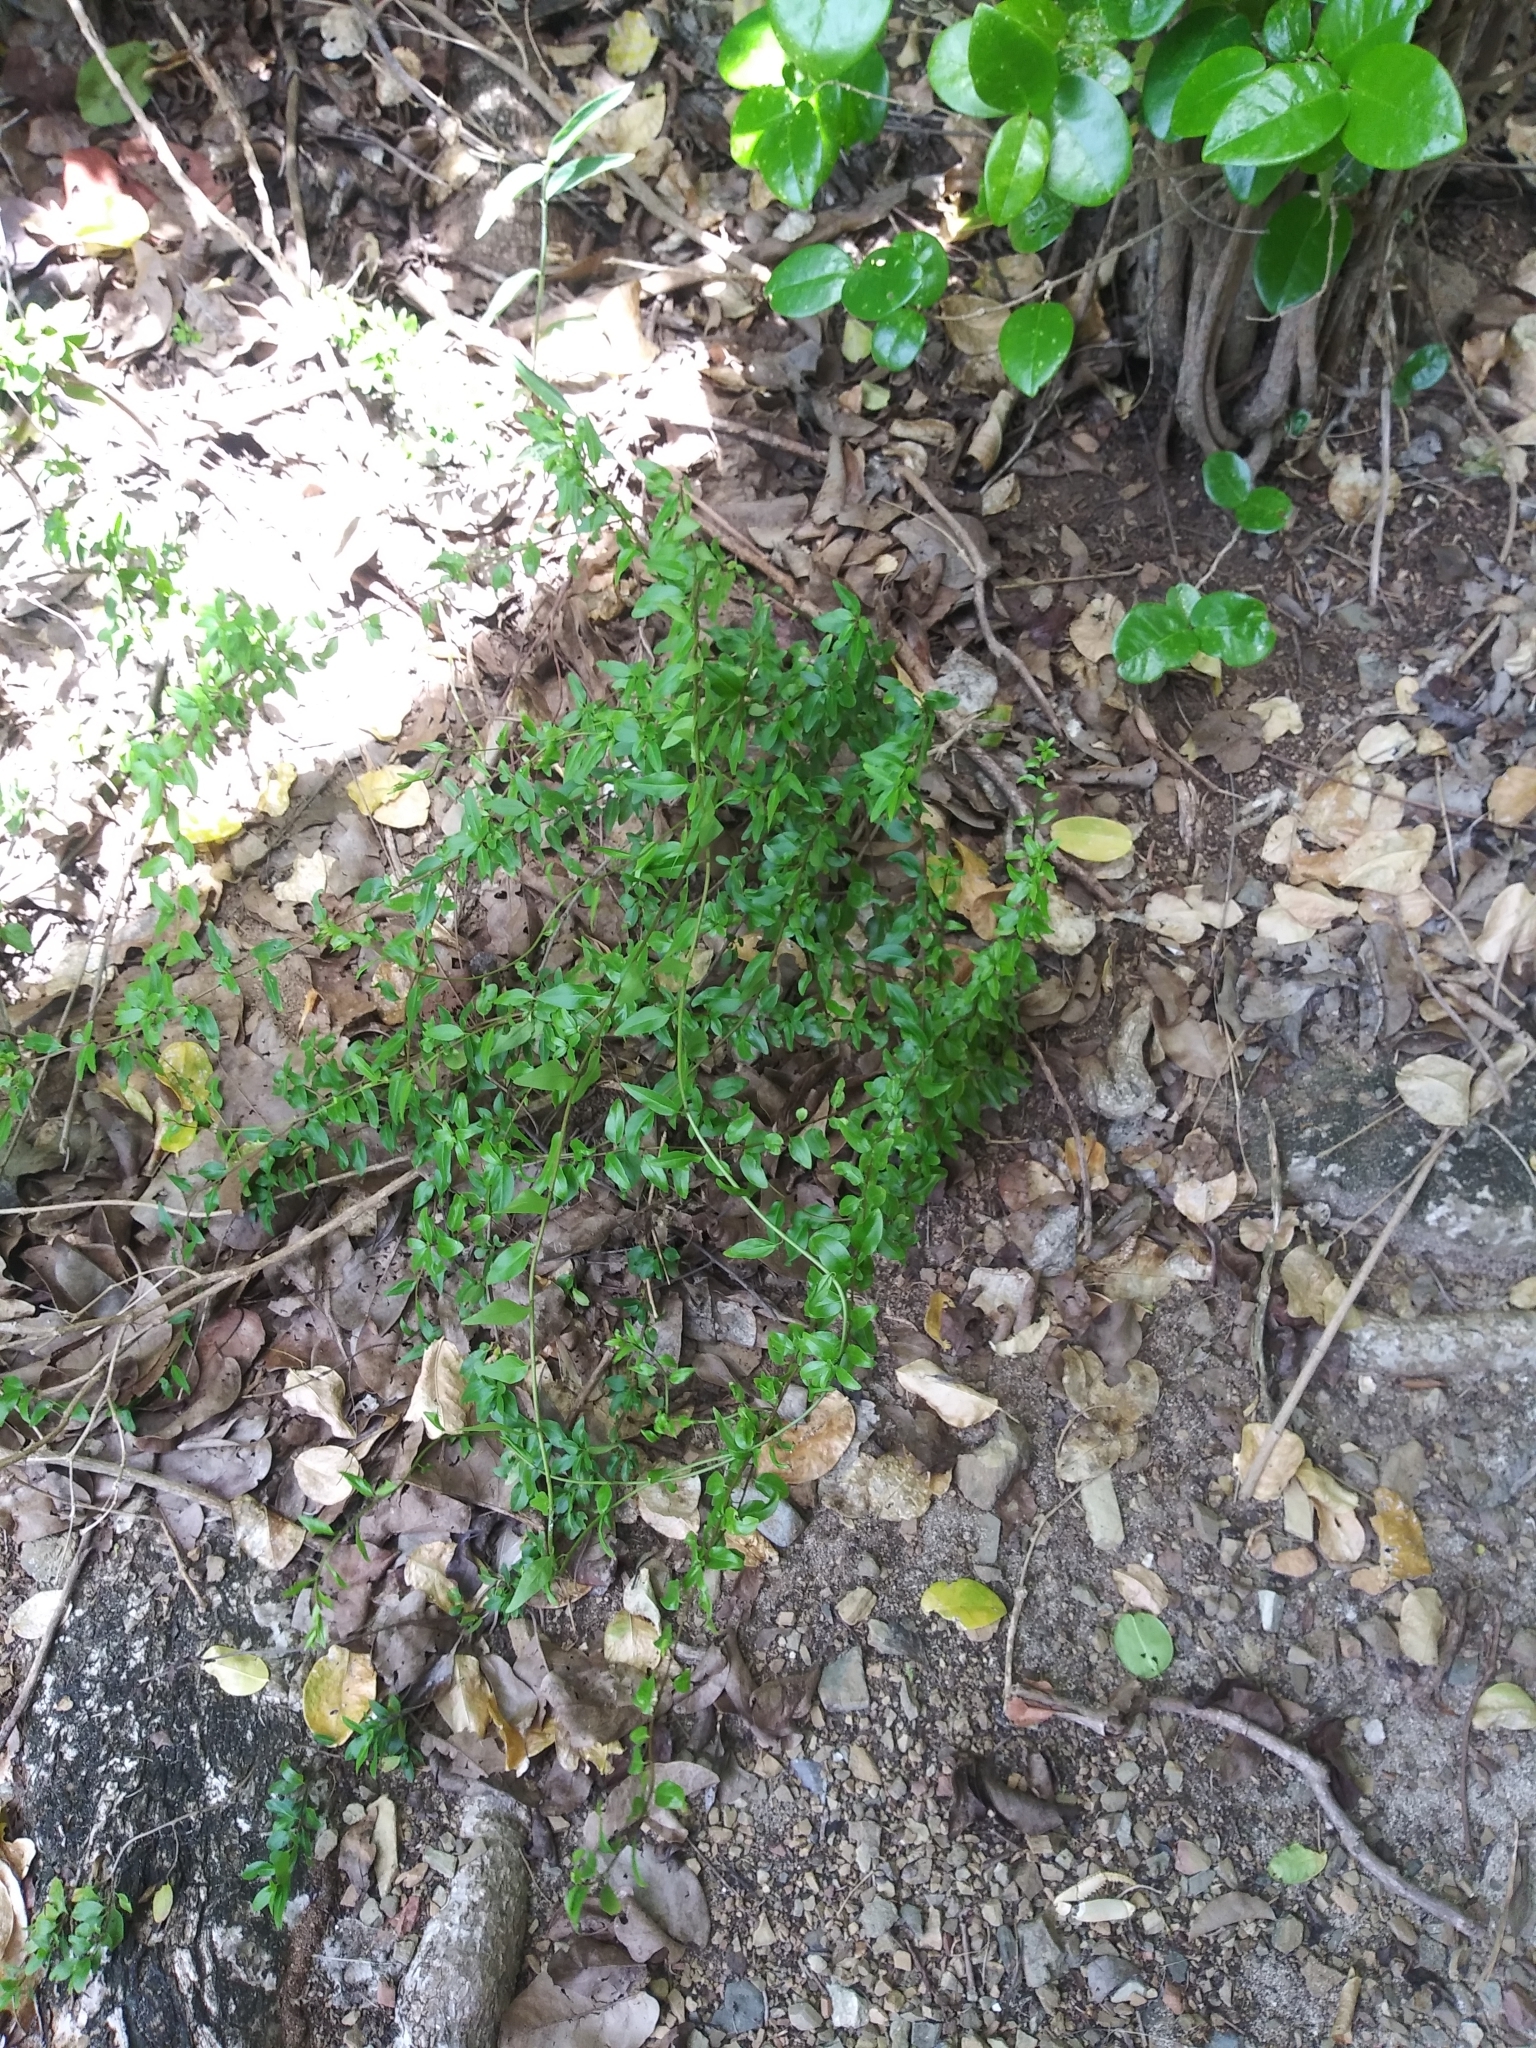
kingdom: Plantae
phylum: Tracheophyta
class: Magnoliopsida
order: Boraginales
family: Heliotropiaceae
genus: Myriopus
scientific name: Myriopus volubilis
